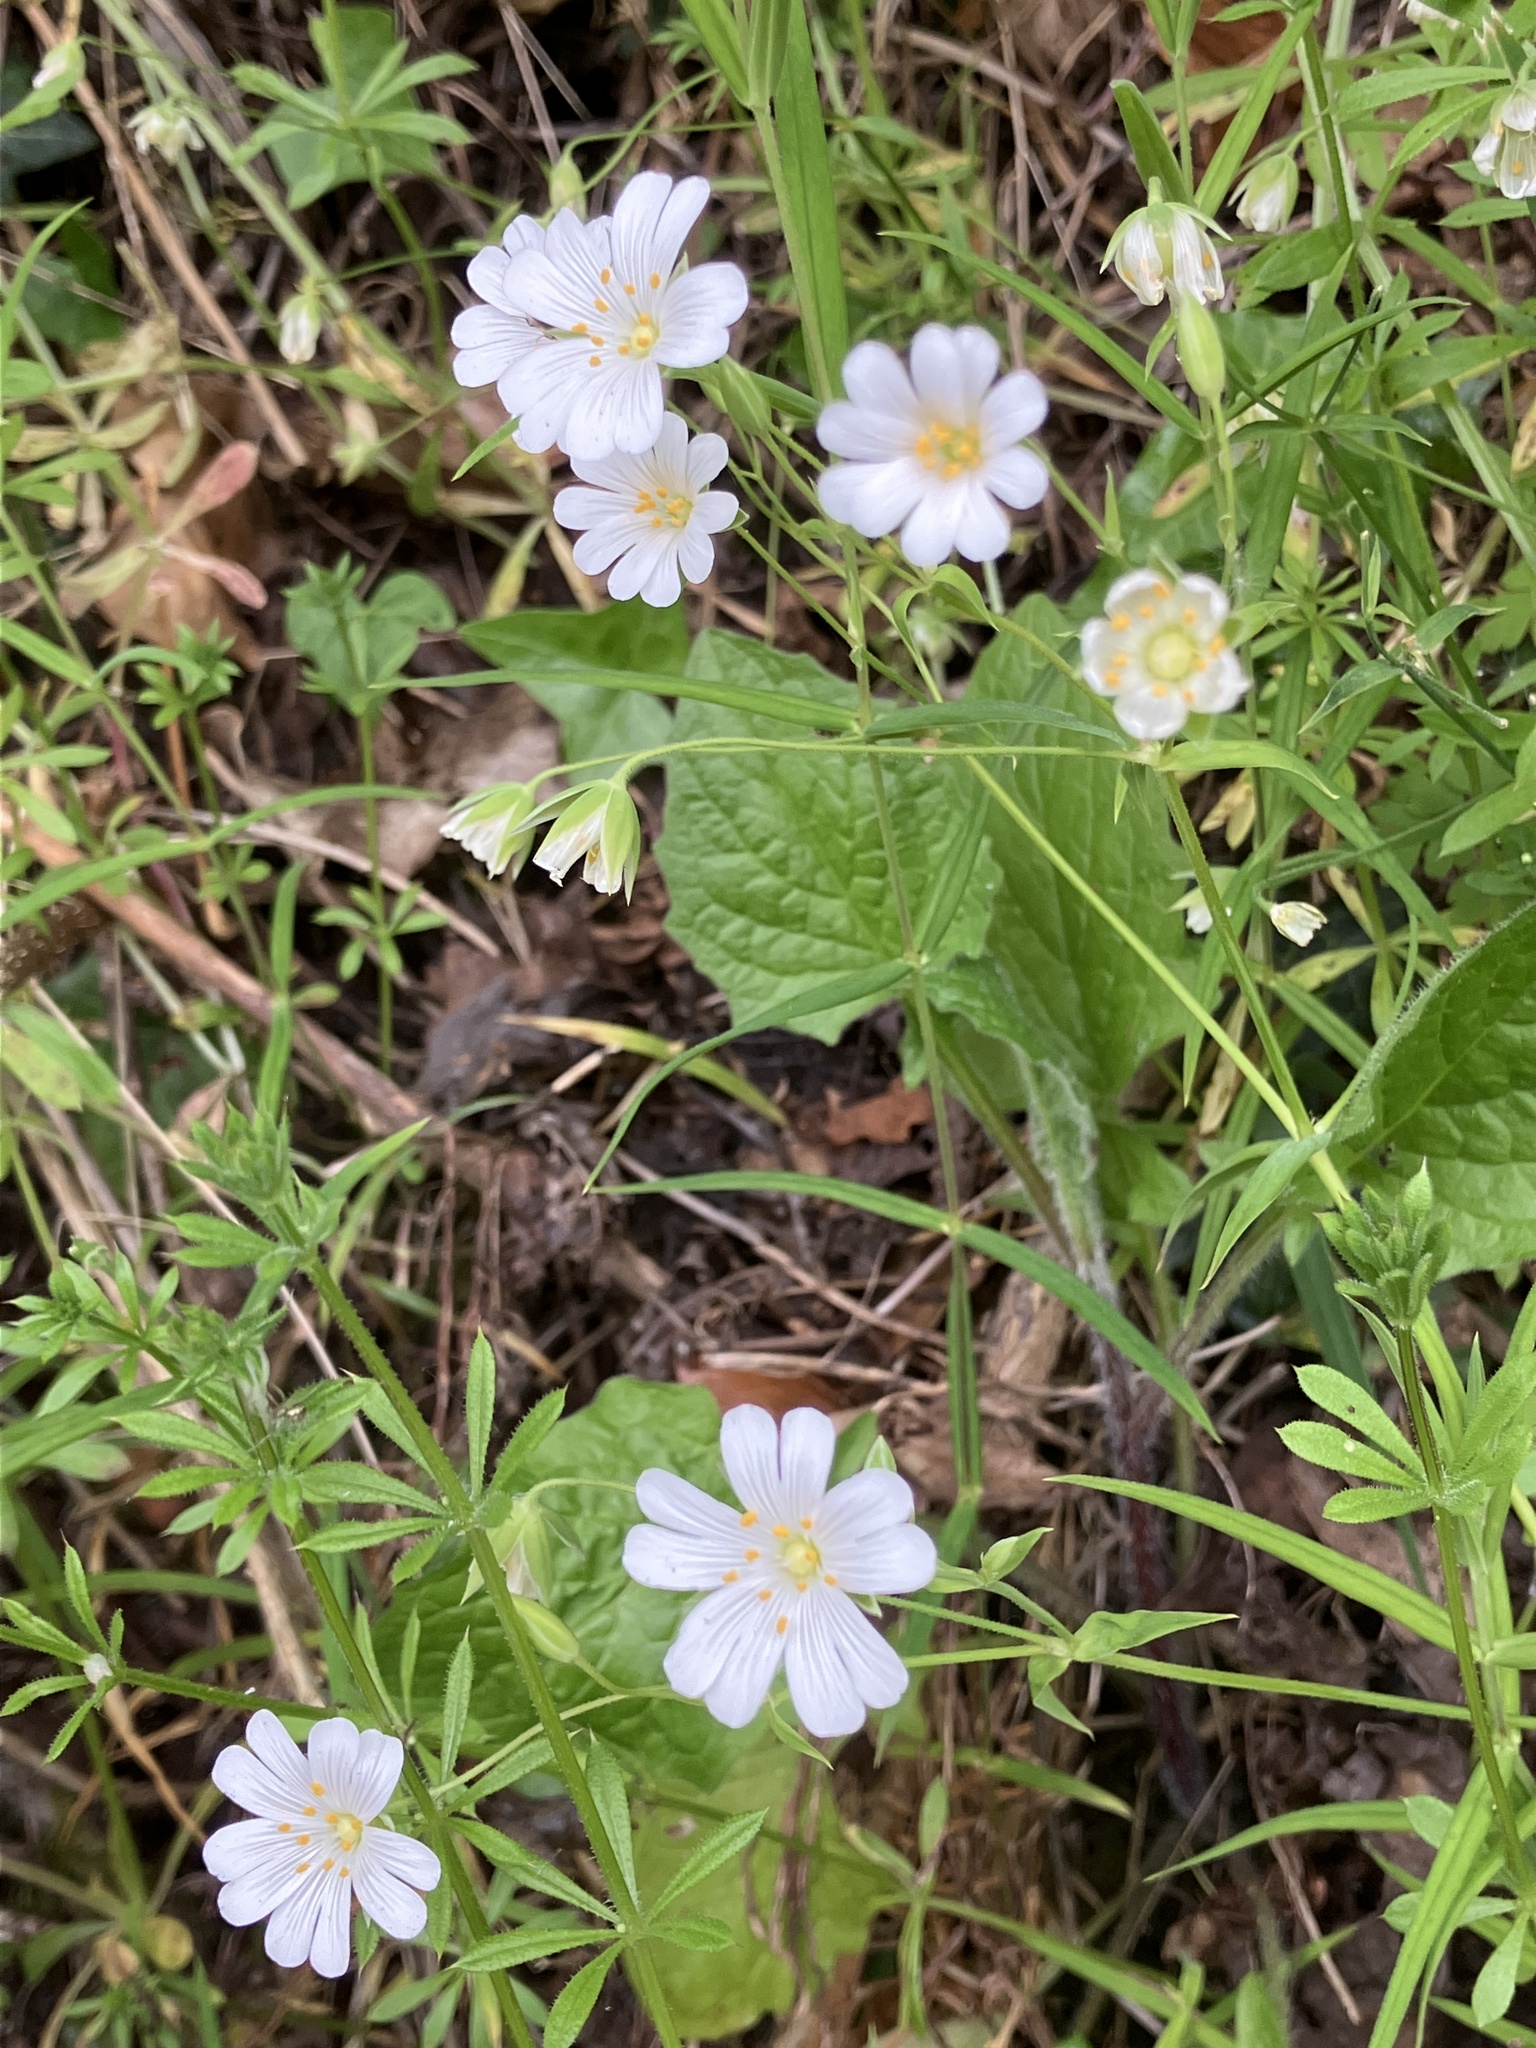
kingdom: Plantae
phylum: Tracheophyta
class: Magnoliopsida
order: Caryophyllales
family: Caryophyllaceae
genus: Rabelera
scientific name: Rabelera holostea
